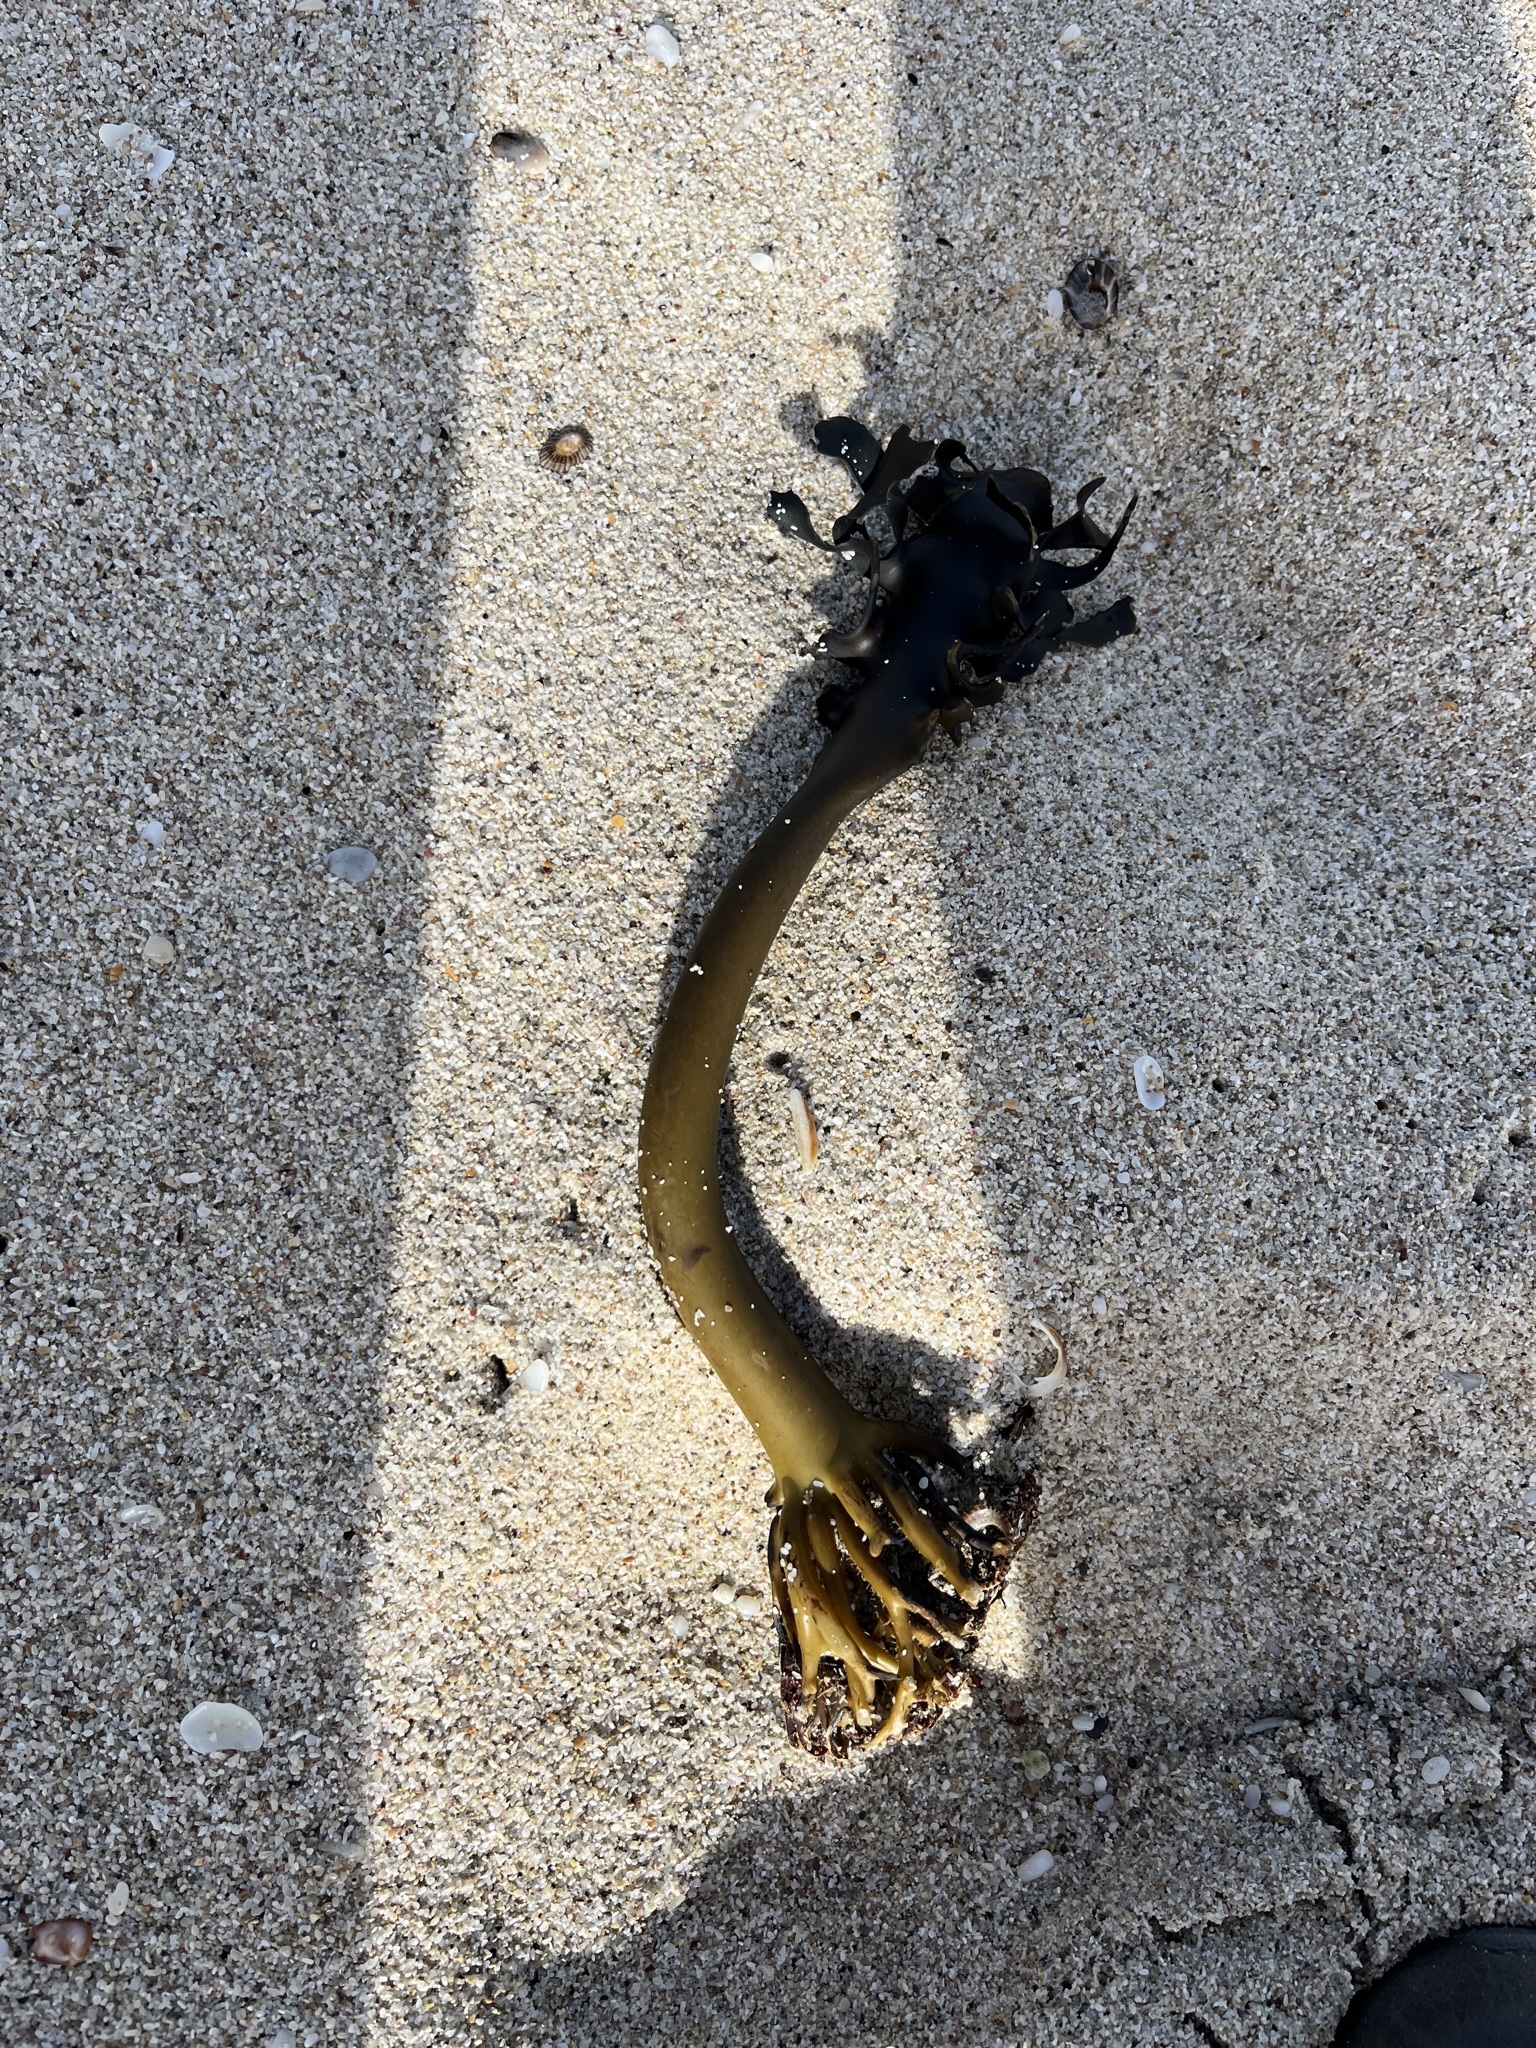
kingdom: Chromista
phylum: Ochrophyta
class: Phaeophyceae
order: Laminariales
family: Lessoniaceae
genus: Ecklonia
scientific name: Ecklonia
